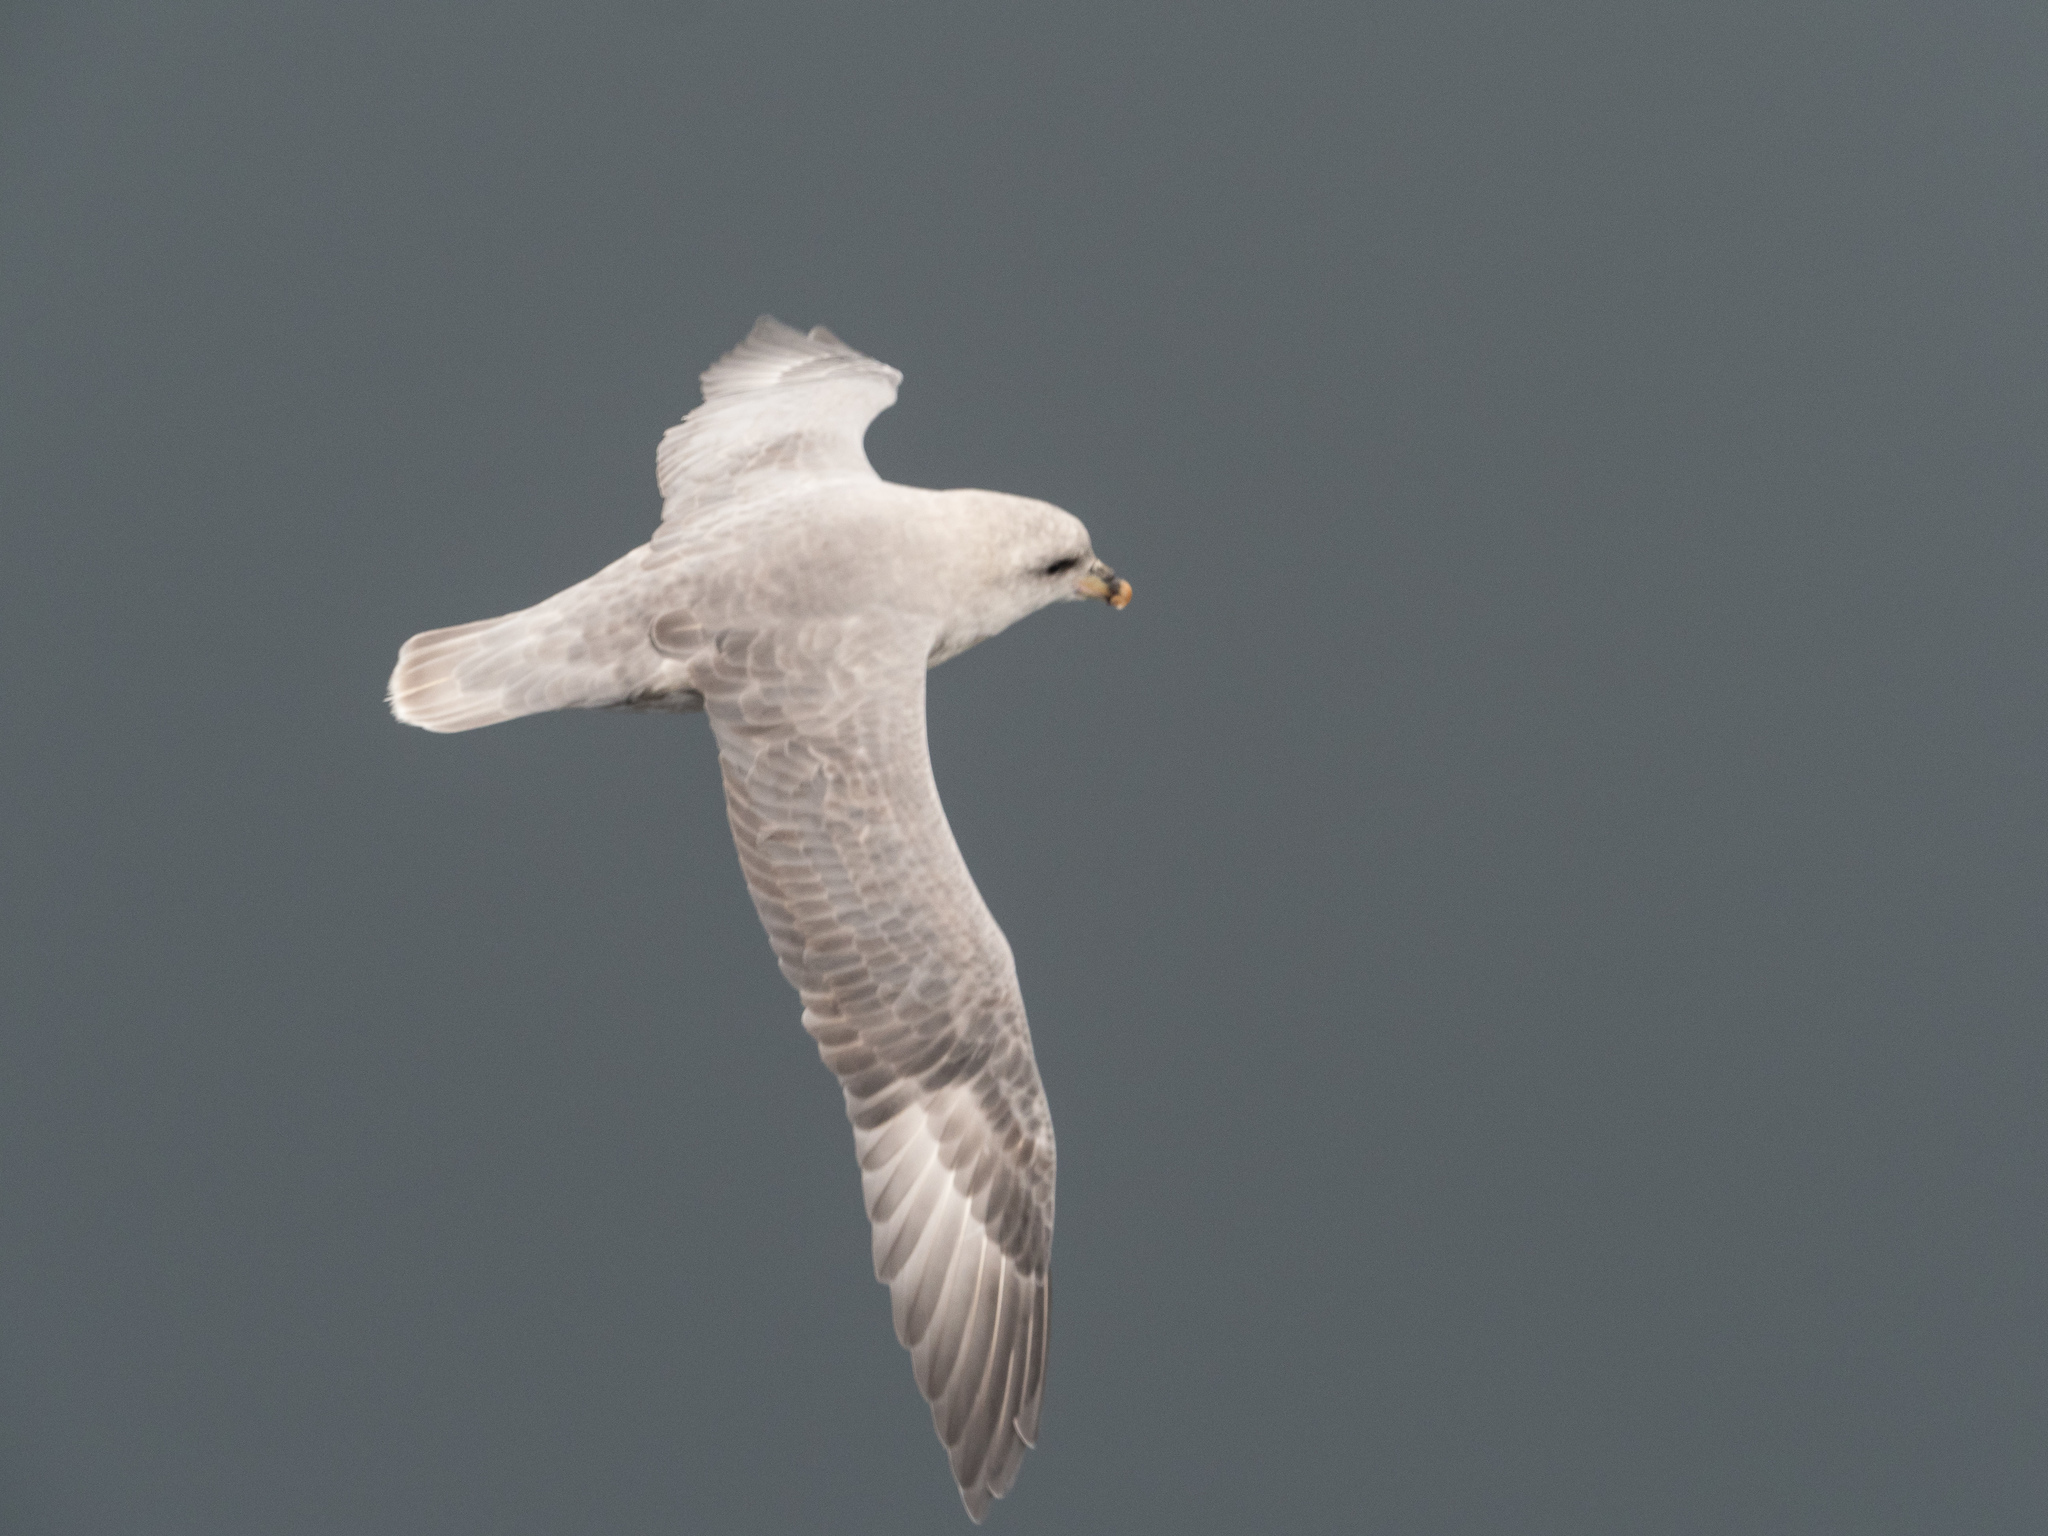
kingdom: Animalia
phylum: Chordata
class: Aves
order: Procellariiformes
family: Procellariidae
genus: Fulmarus
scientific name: Fulmarus glacialis
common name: Northern fulmar
